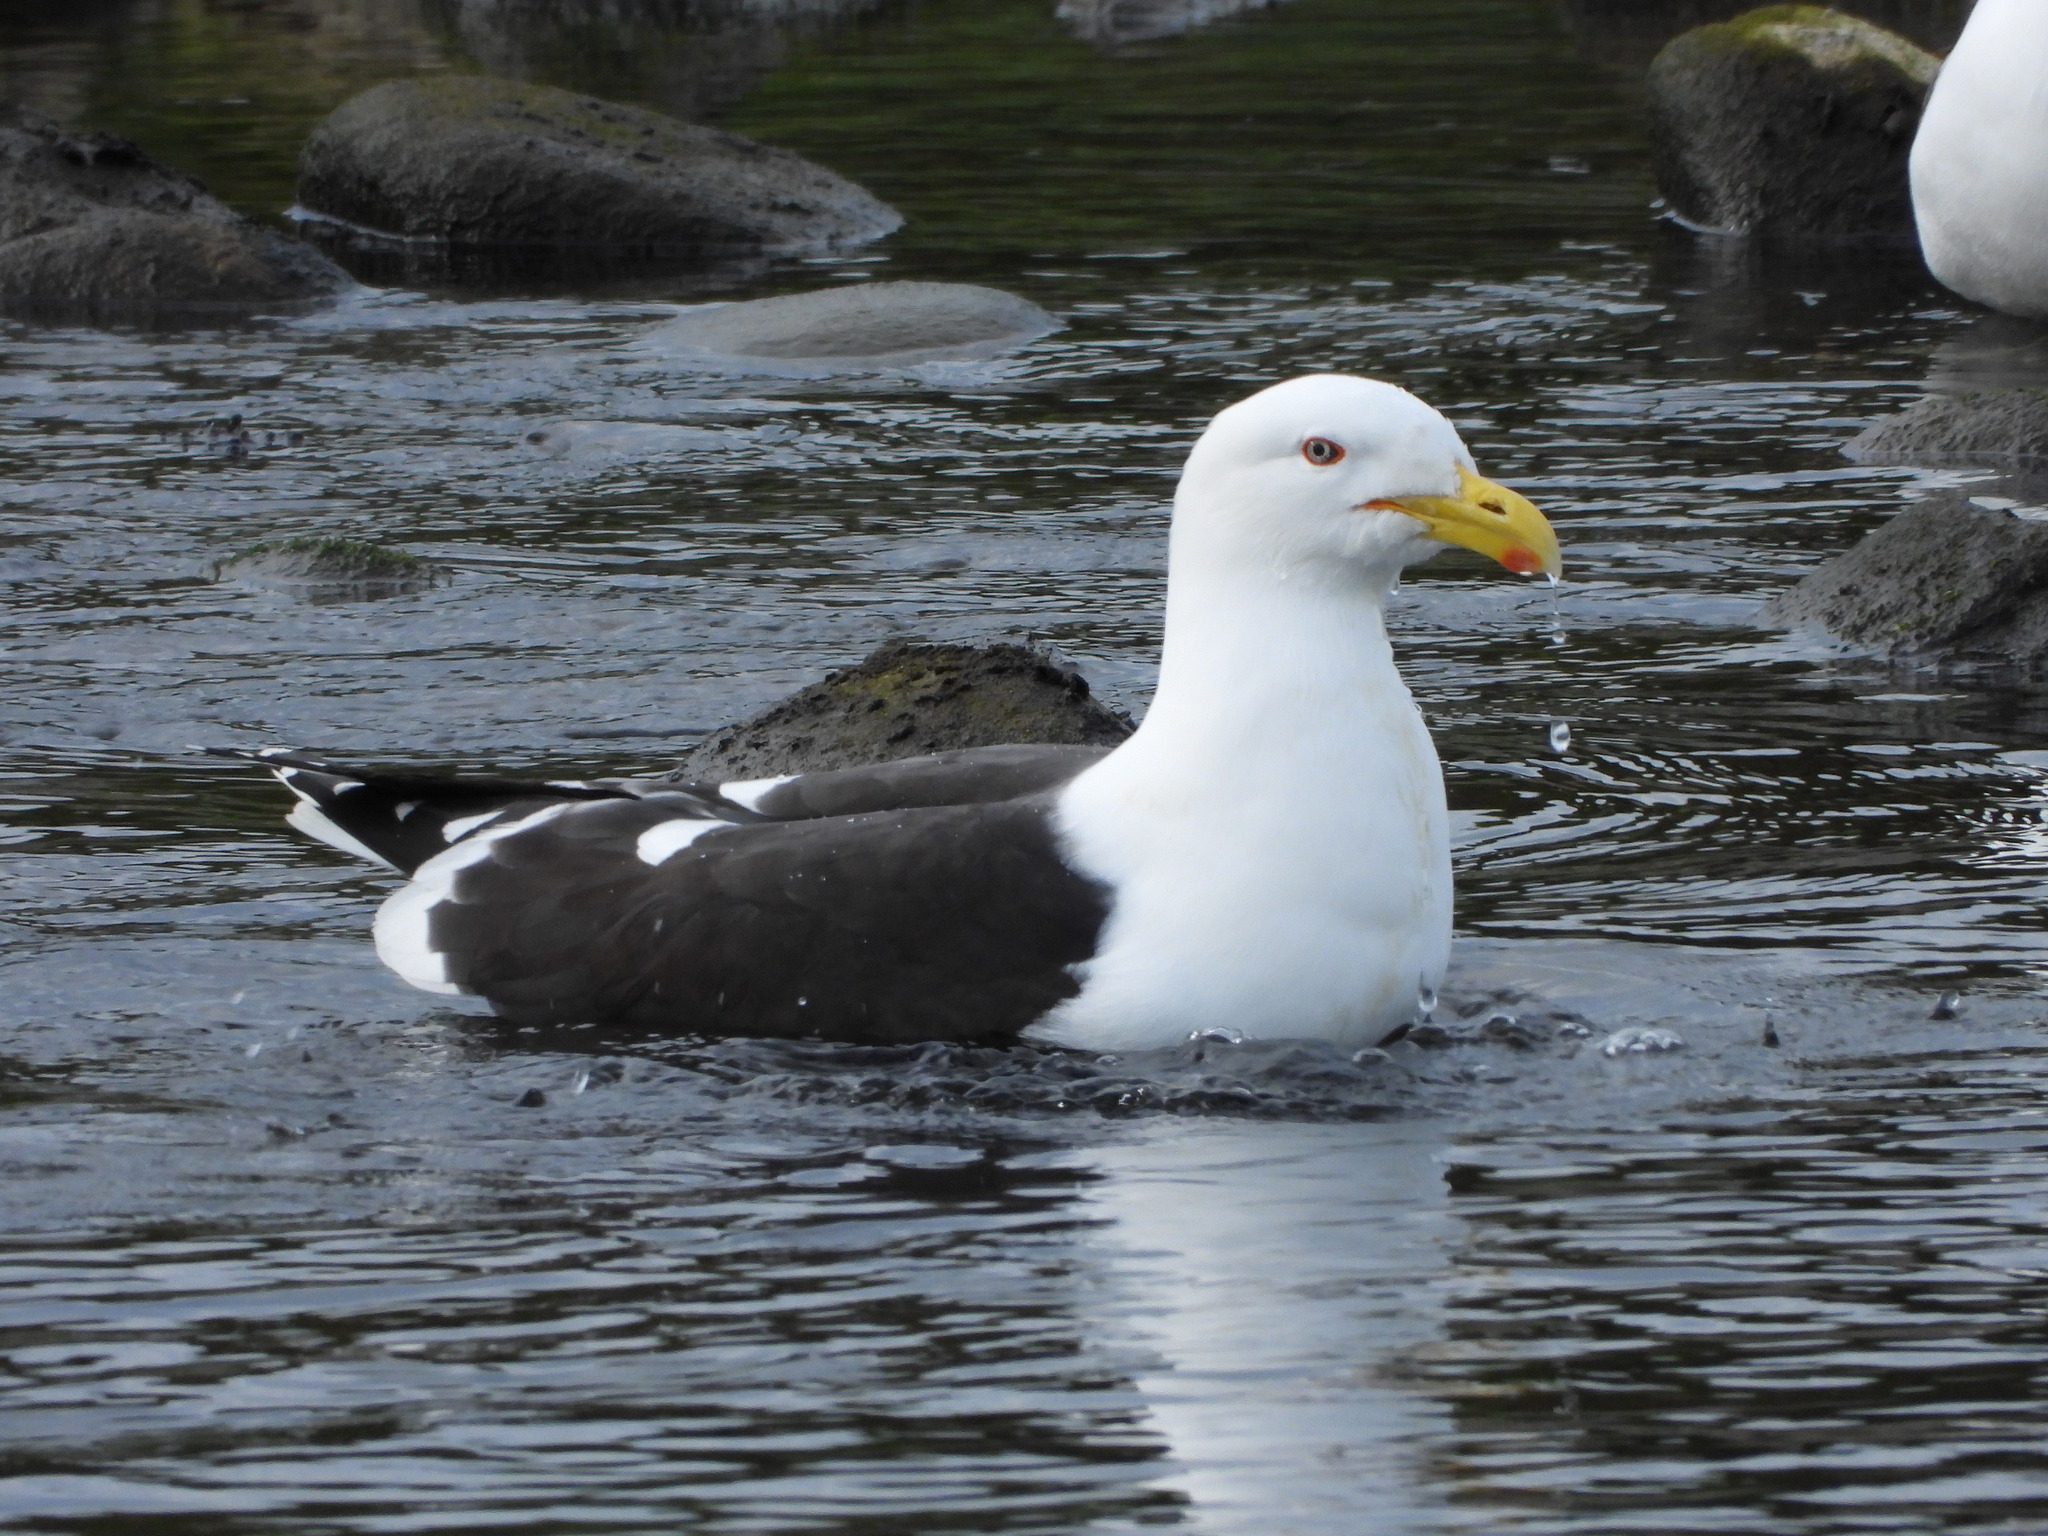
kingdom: Animalia
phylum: Chordata
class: Aves
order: Charadriiformes
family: Laridae
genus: Larus
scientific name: Larus dominicanus
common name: Kelp gull
